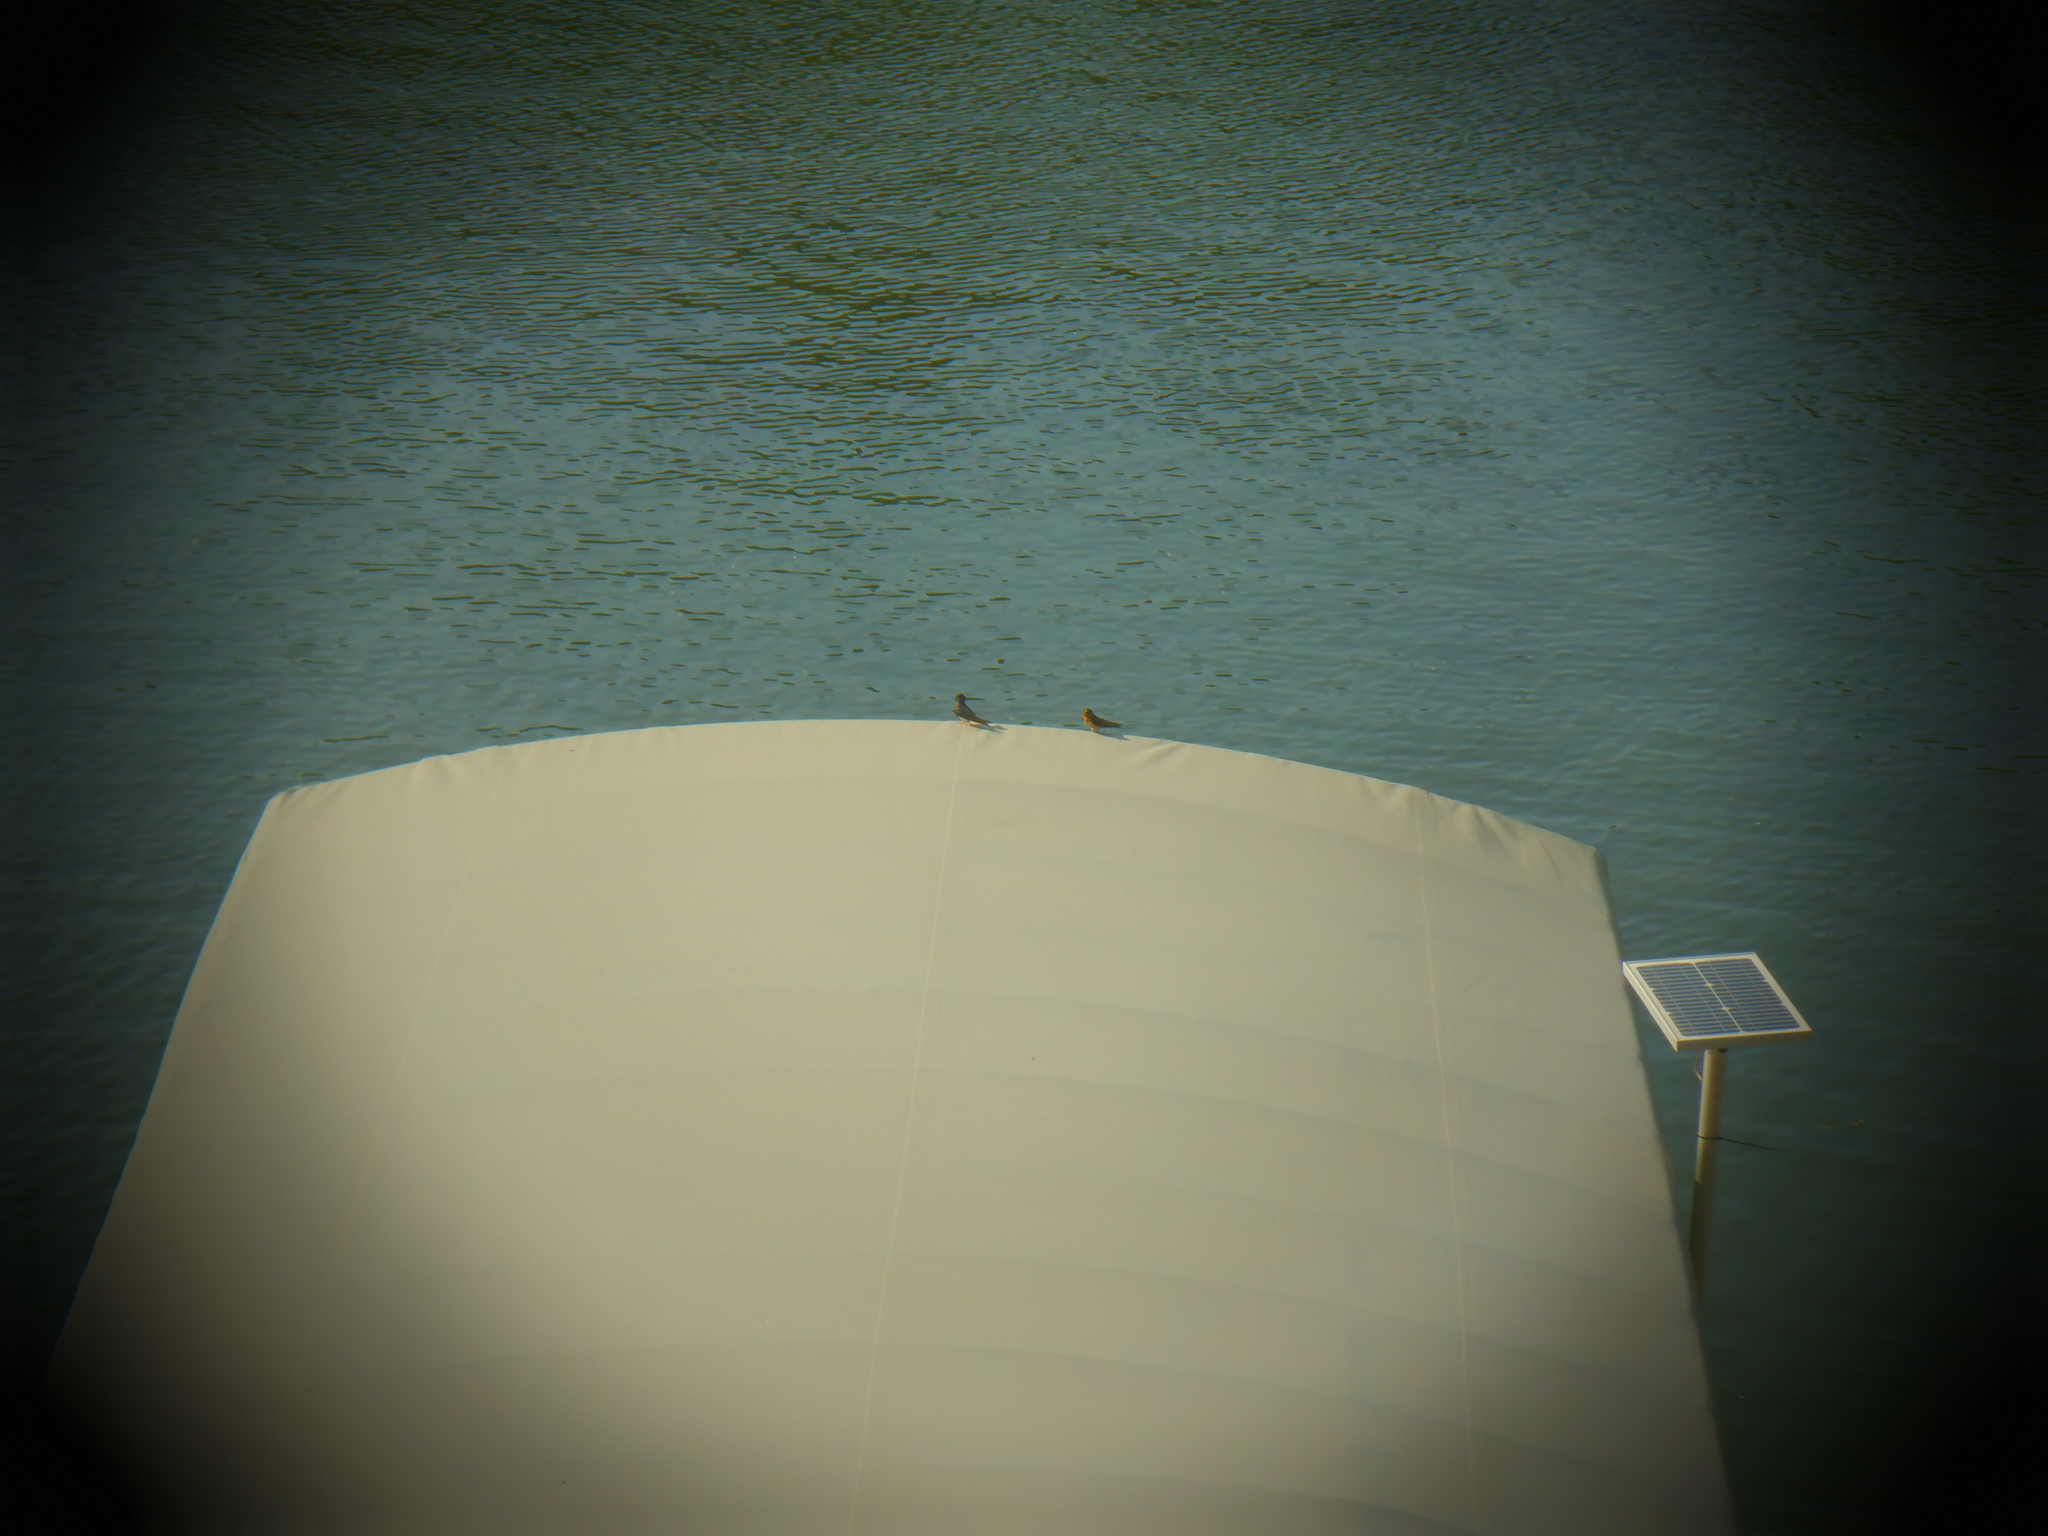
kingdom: Animalia
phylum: Chordata
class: Aves
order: Passeriformes
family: Hirundinidae
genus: Hirundo
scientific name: Hirundo rustica
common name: Barn swallow
